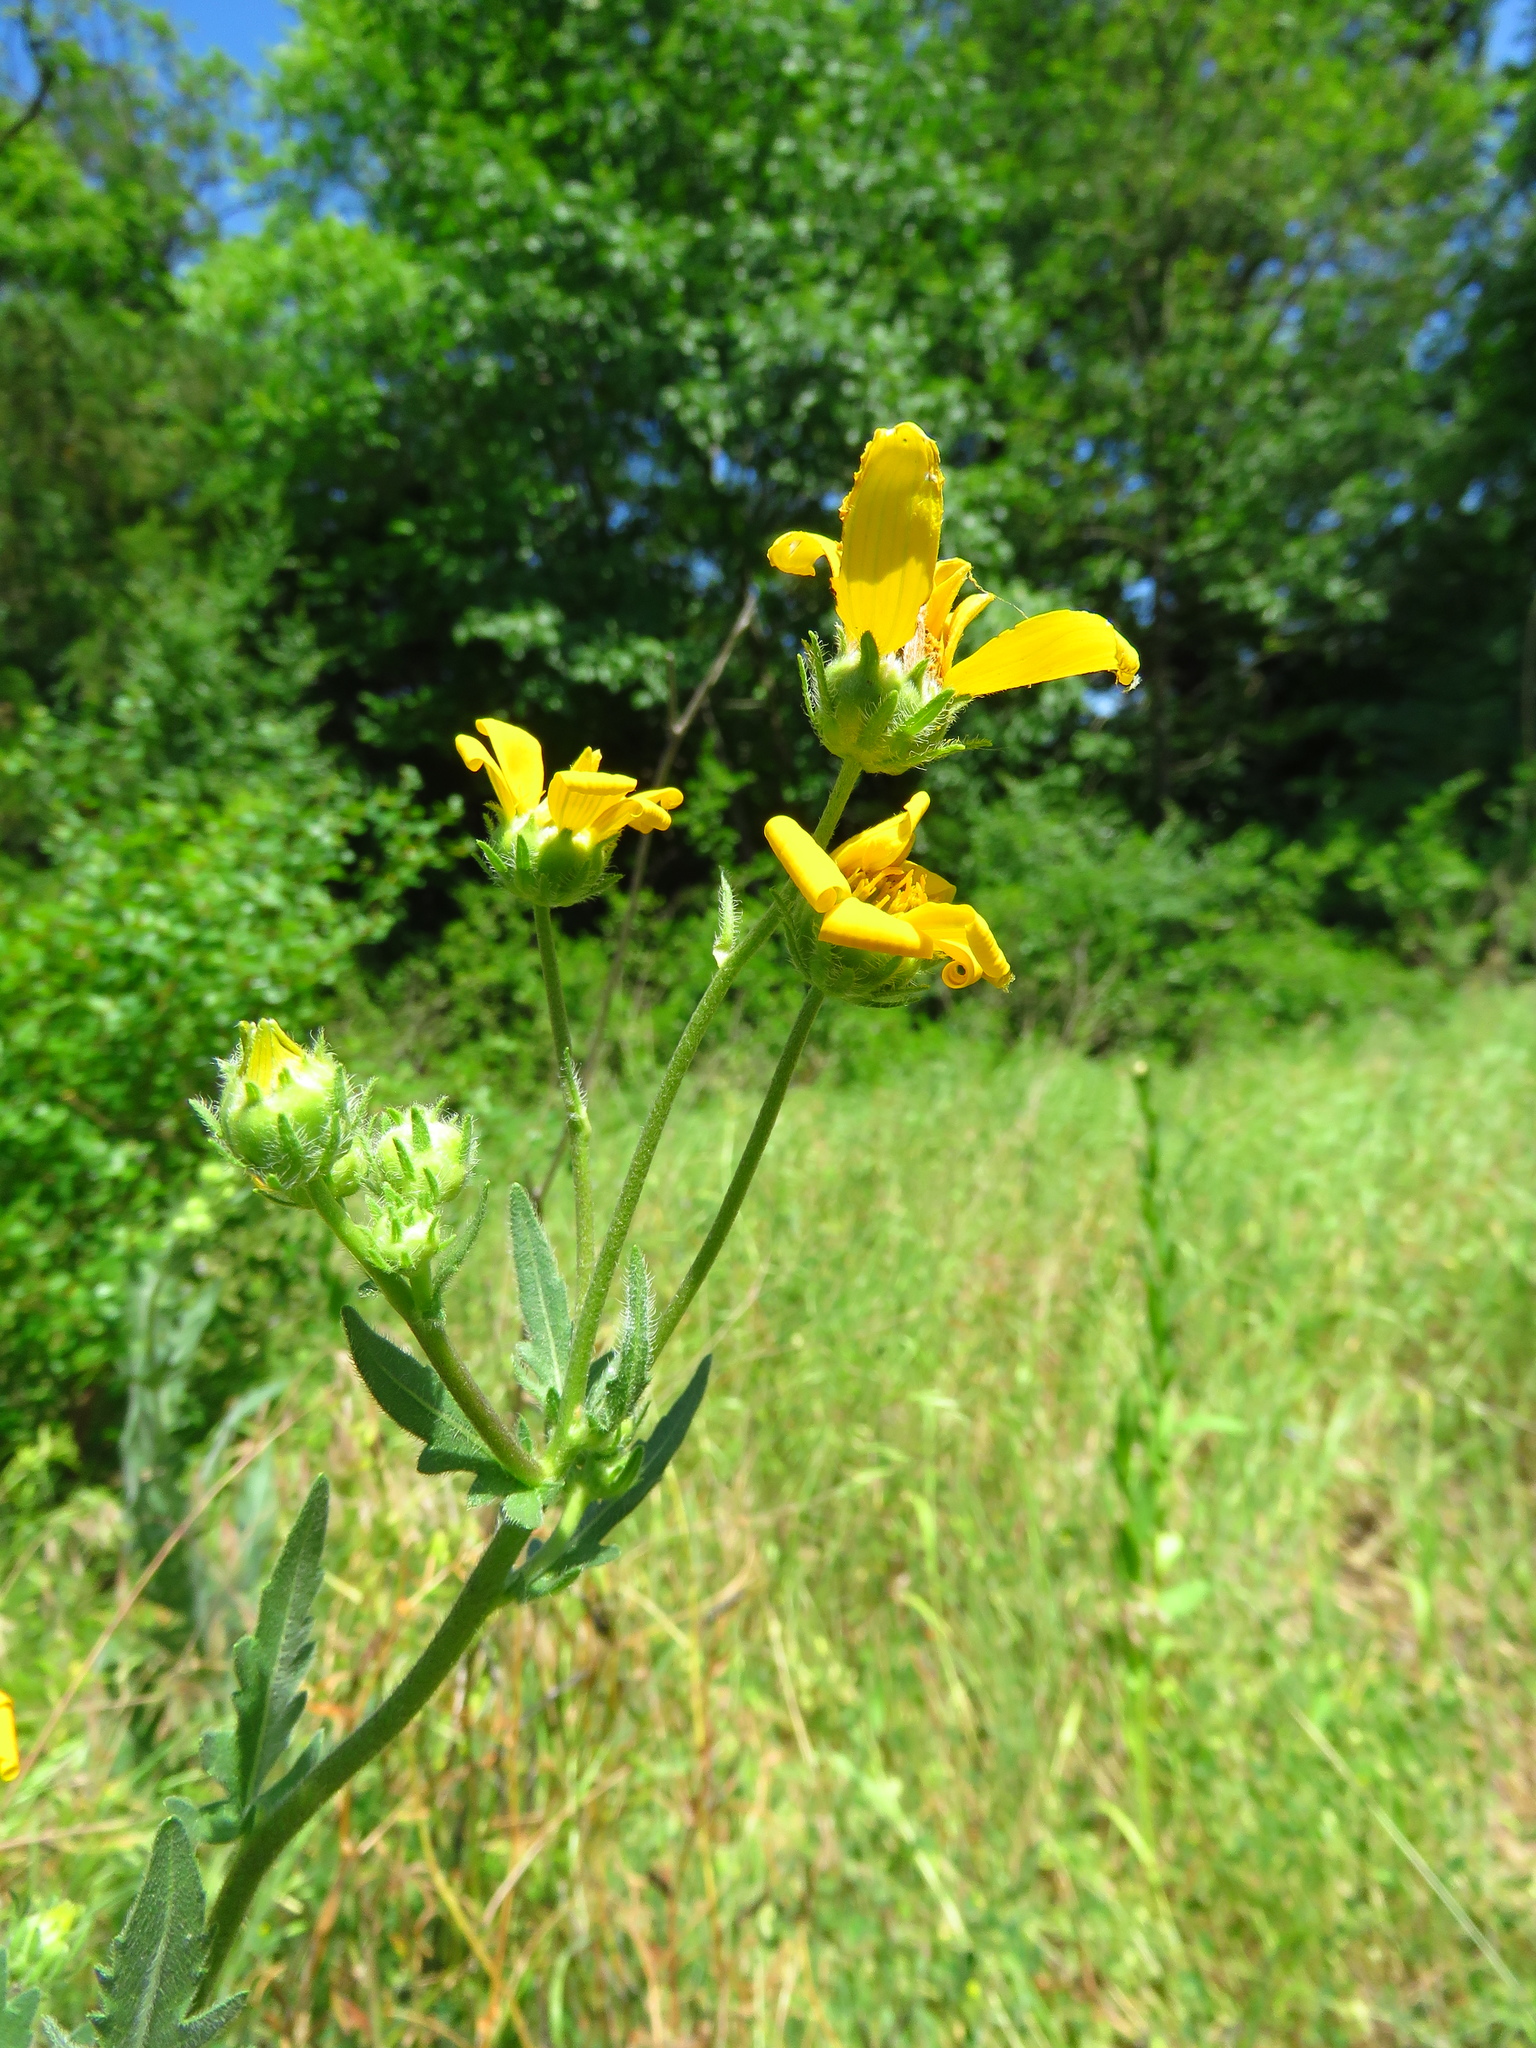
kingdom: Plantae
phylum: Tracheophyta
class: Magnoliopsida
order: Asterales
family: Asteraceae
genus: Engelmannia
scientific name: Engelmannia peristenia
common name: Engelmann's daisy
